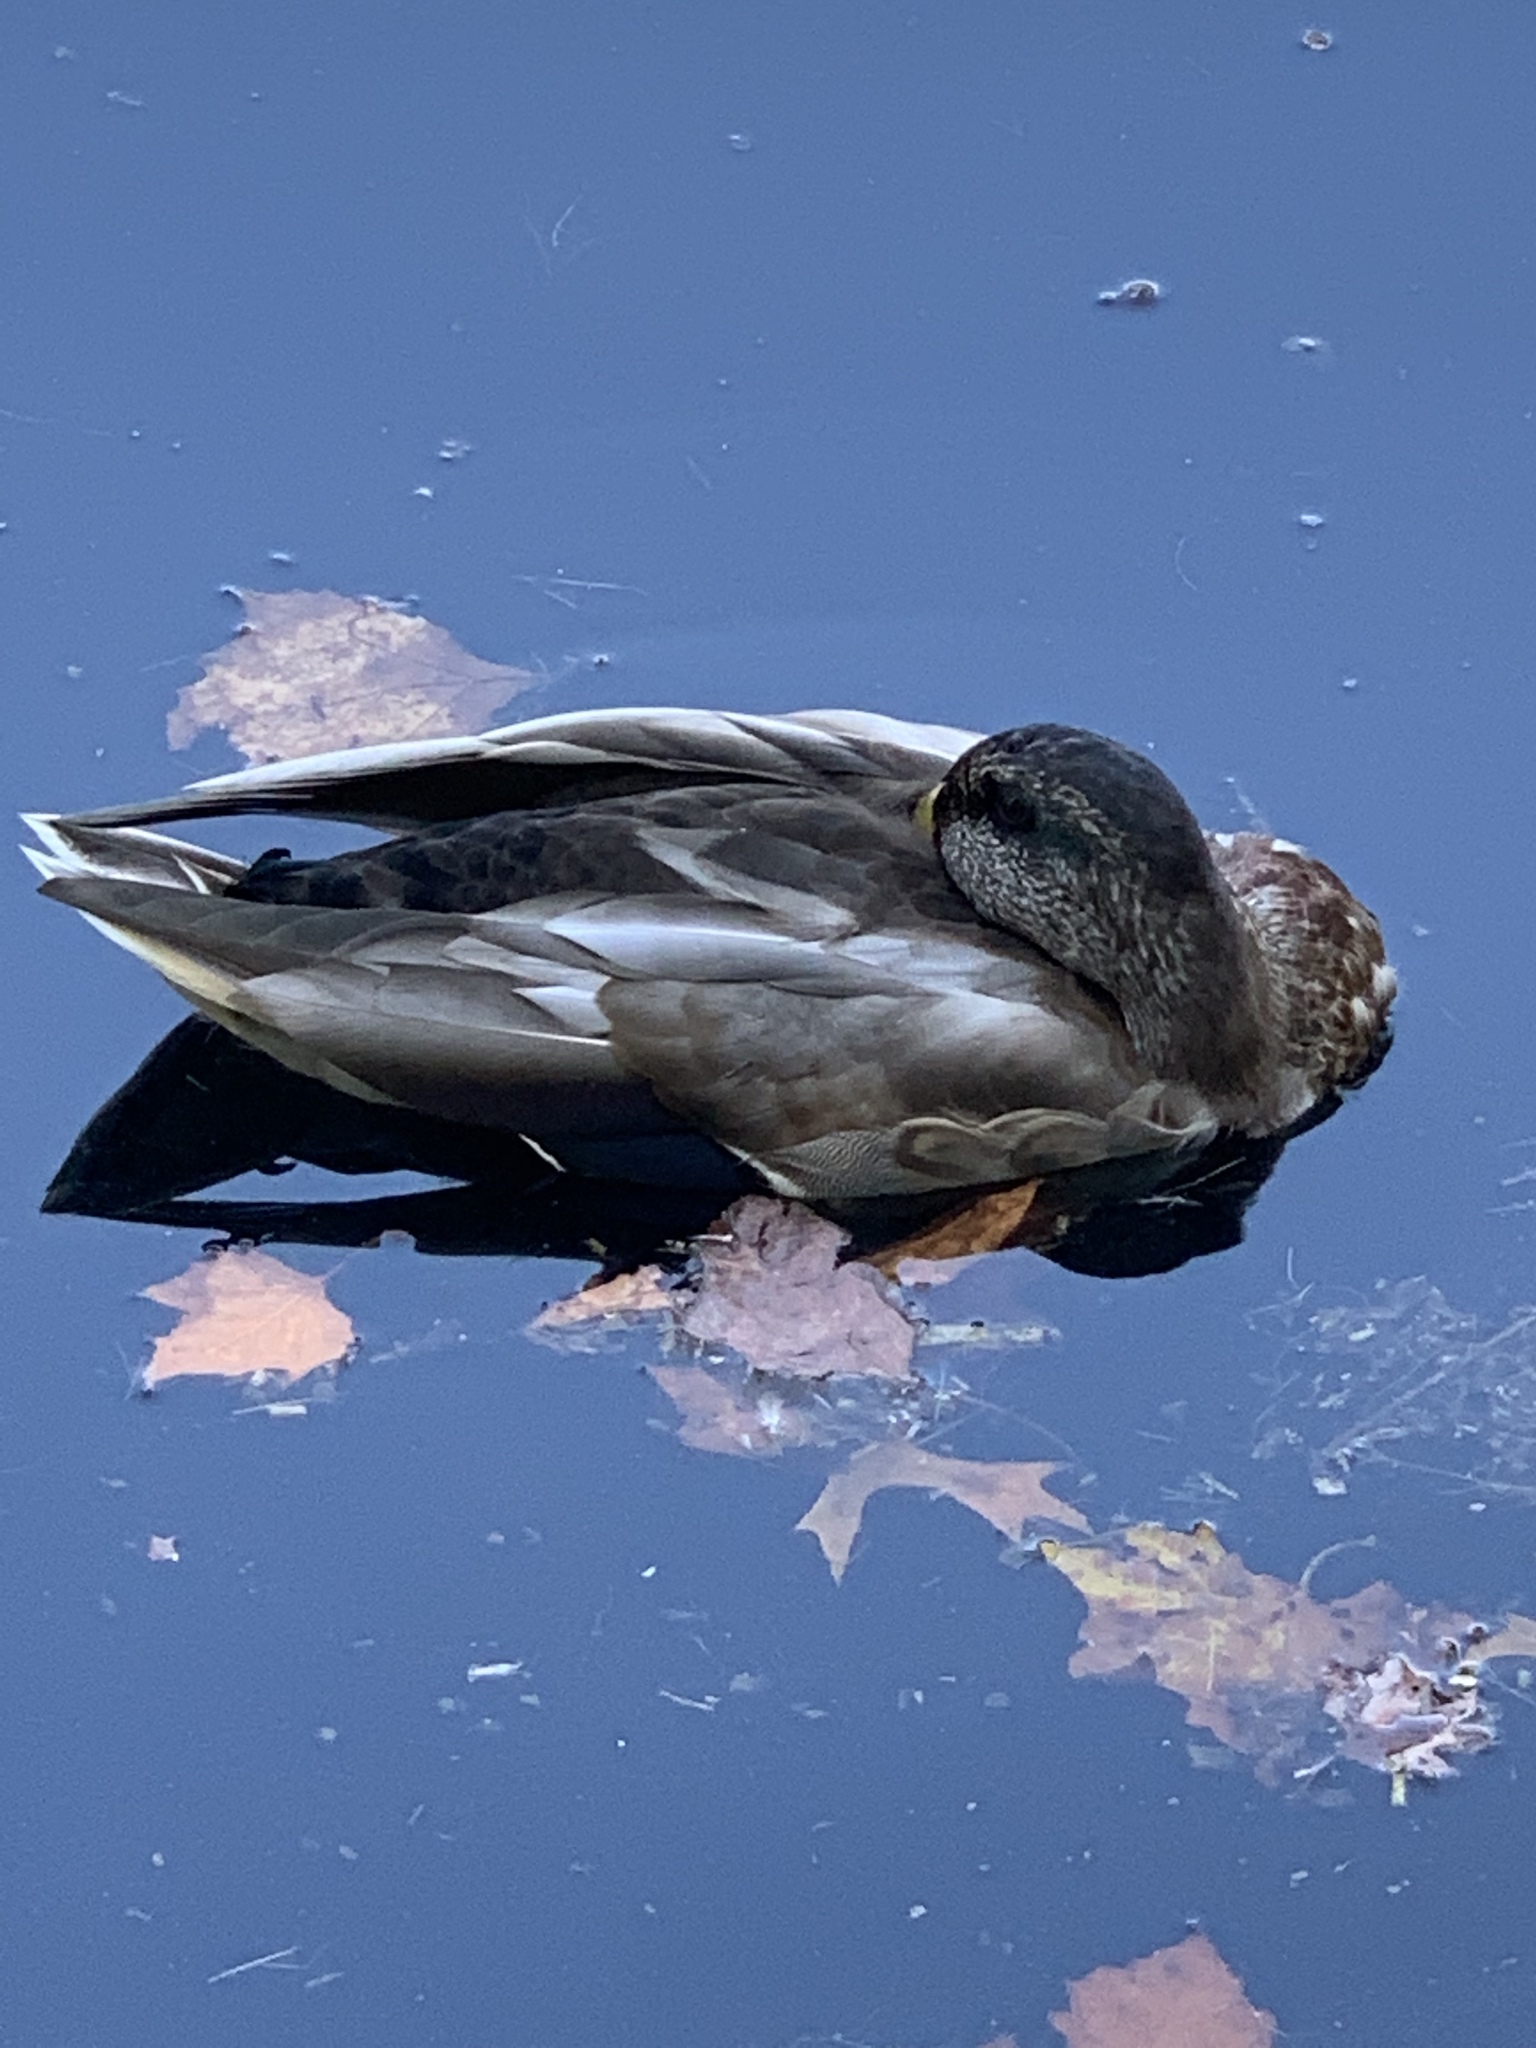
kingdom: Animalia
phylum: Chordata
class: Aves
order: Anseriformes
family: Anatidae
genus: Anas
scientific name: Anas platyrhynchos
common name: Mallard
